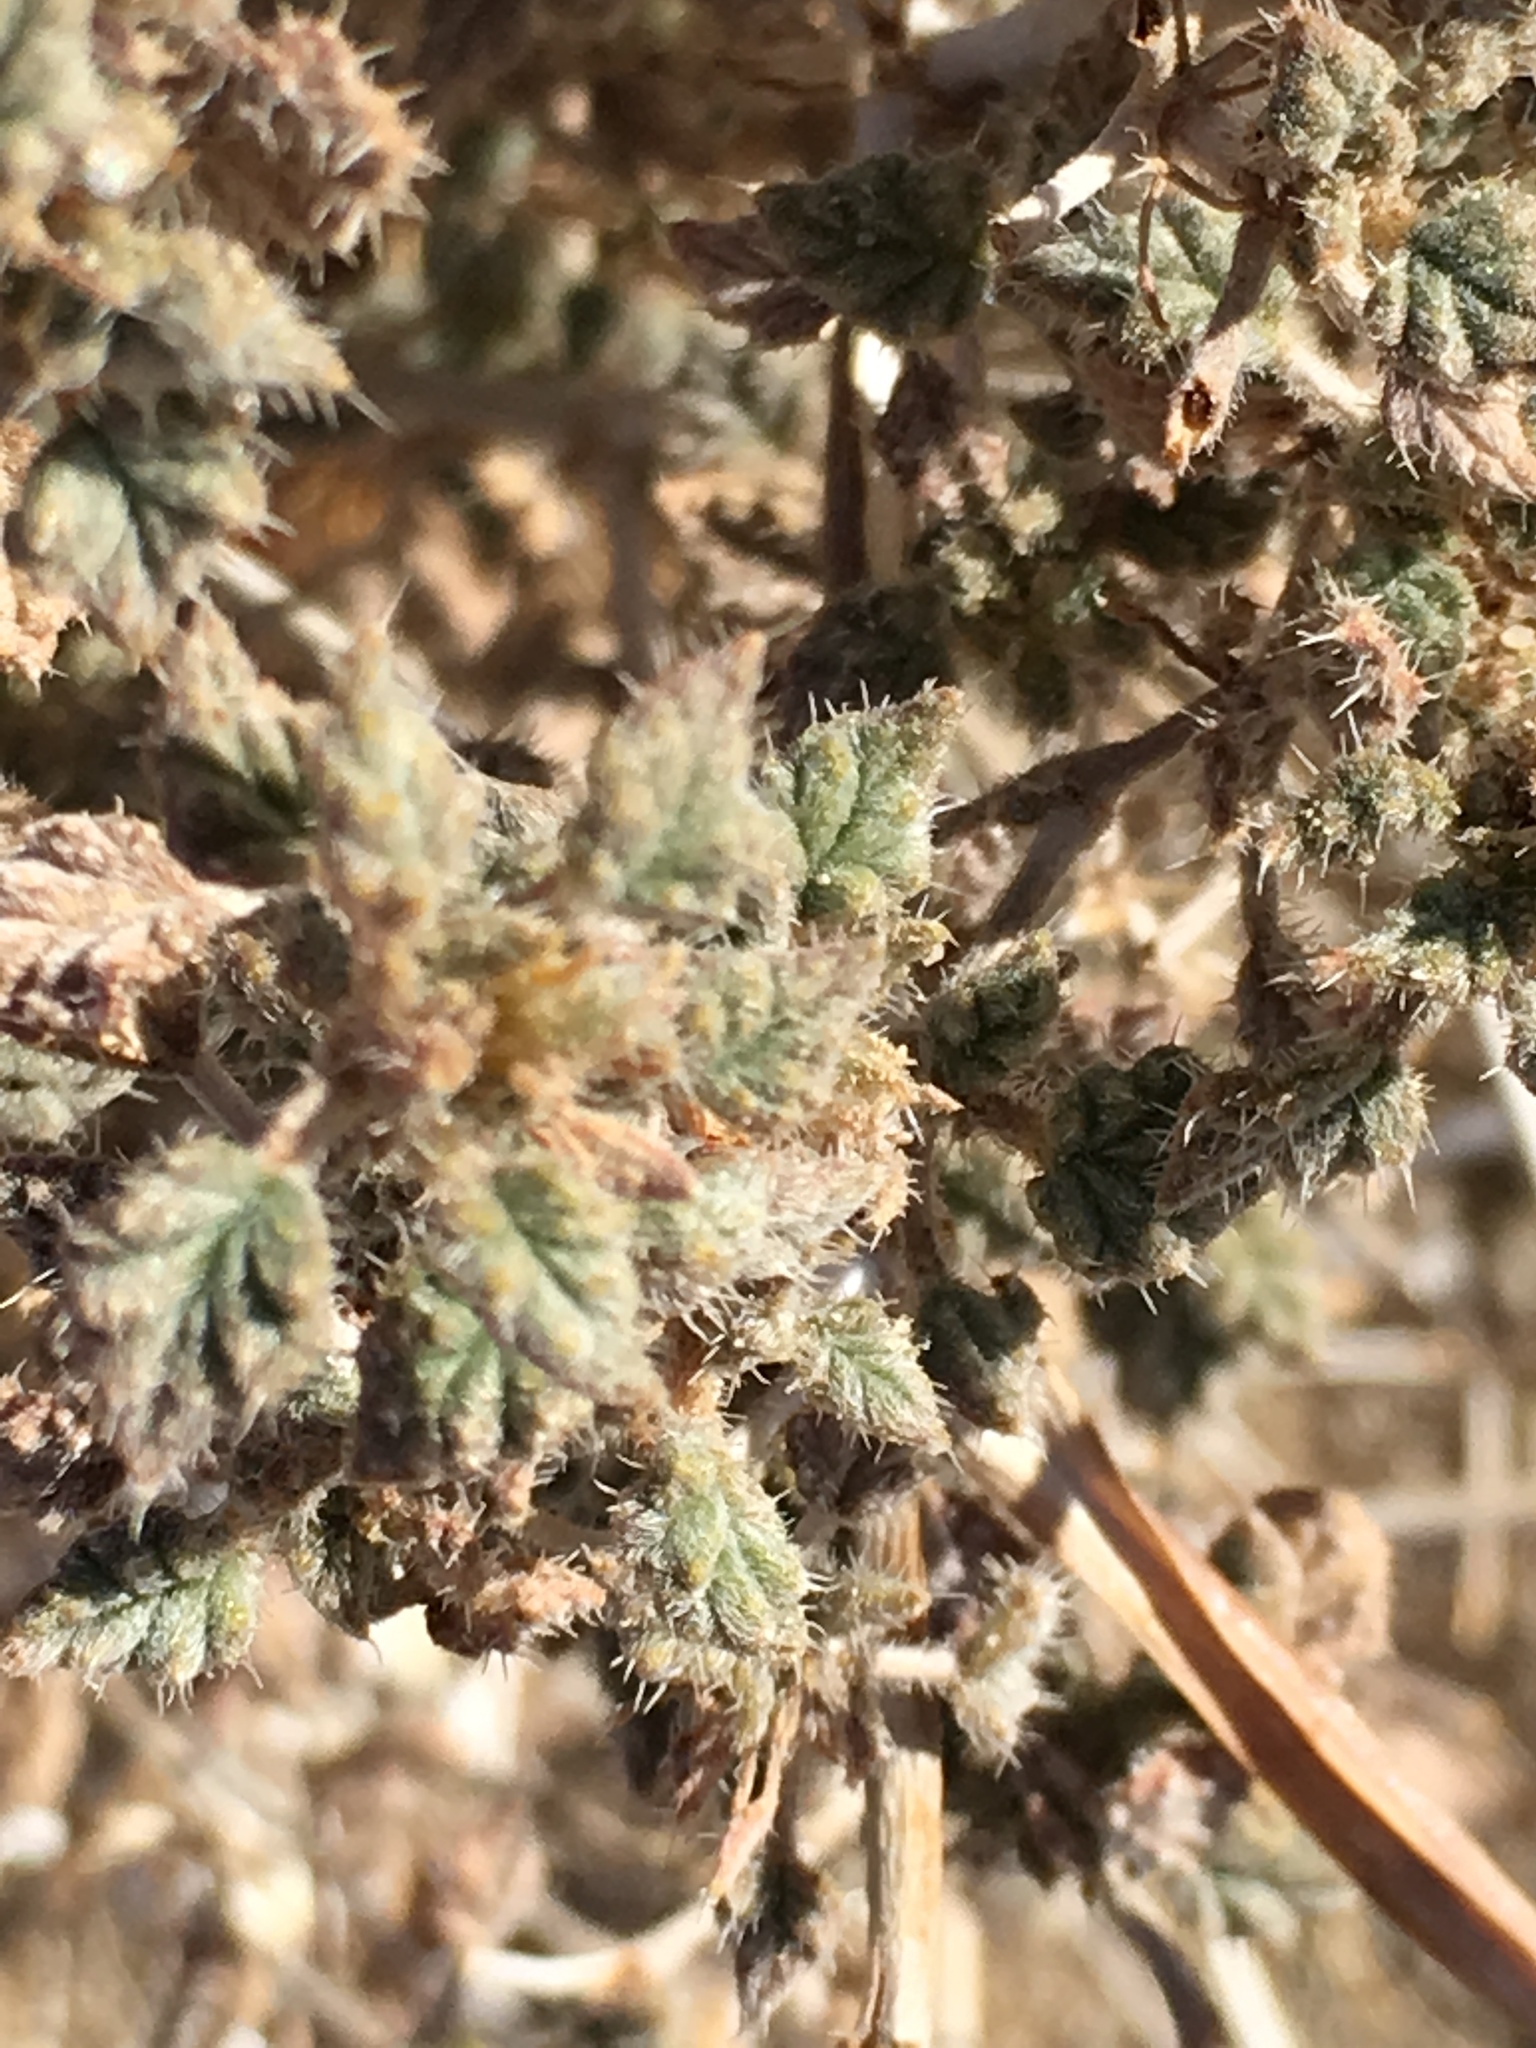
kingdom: Plantae
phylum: Tracheophyta
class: Magnoliopsida
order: Boraginales
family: Ehretiaceae
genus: Tiquilia
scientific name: Tiquilia palmeri
